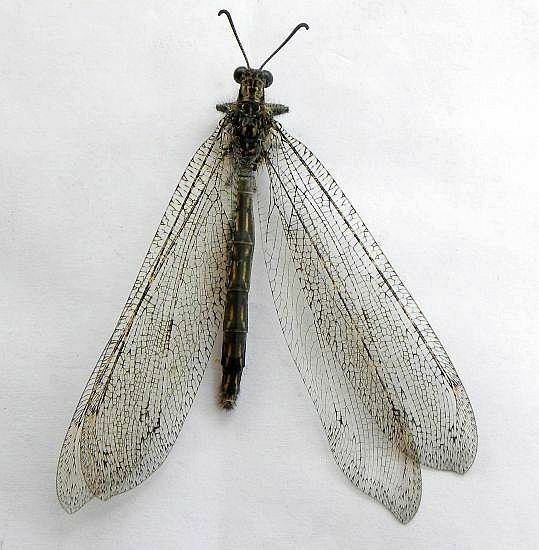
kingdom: Animalia
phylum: Arthropoda
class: Insecta
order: Neuroptera
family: Myrmeleontidae
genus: Vella
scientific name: Vella fallax
